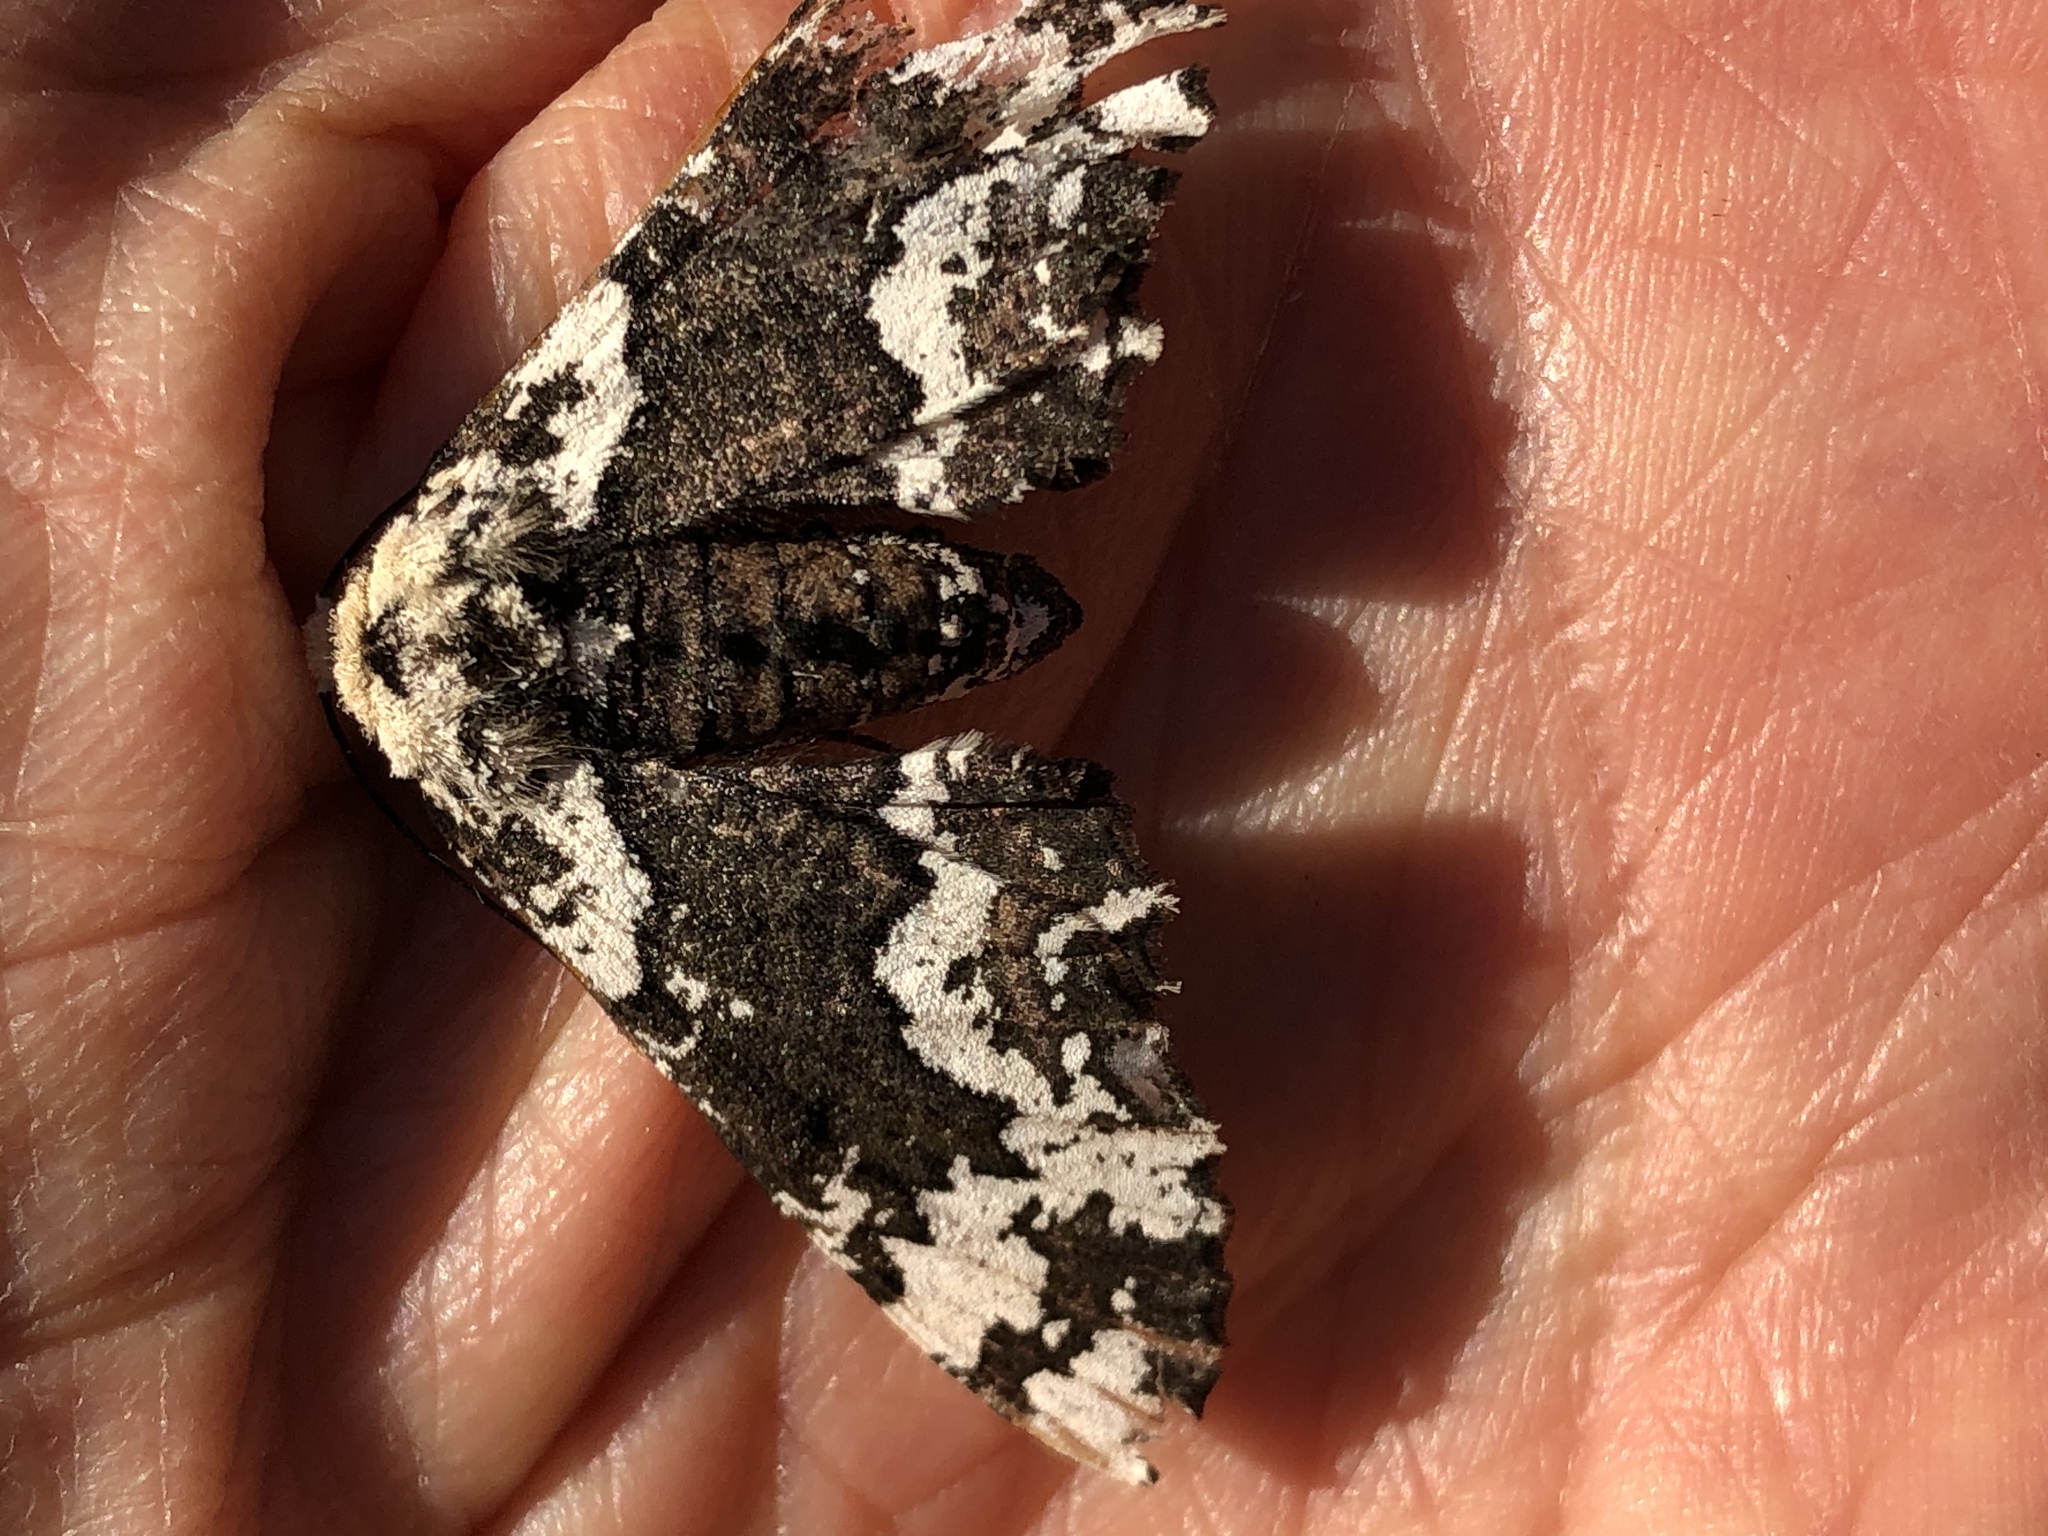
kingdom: Animalia
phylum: Arthropoda
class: Insecta
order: Lepidoptera
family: Geometridae
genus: Phaeoura
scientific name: Phaeoura quernaria
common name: Oak beauty
